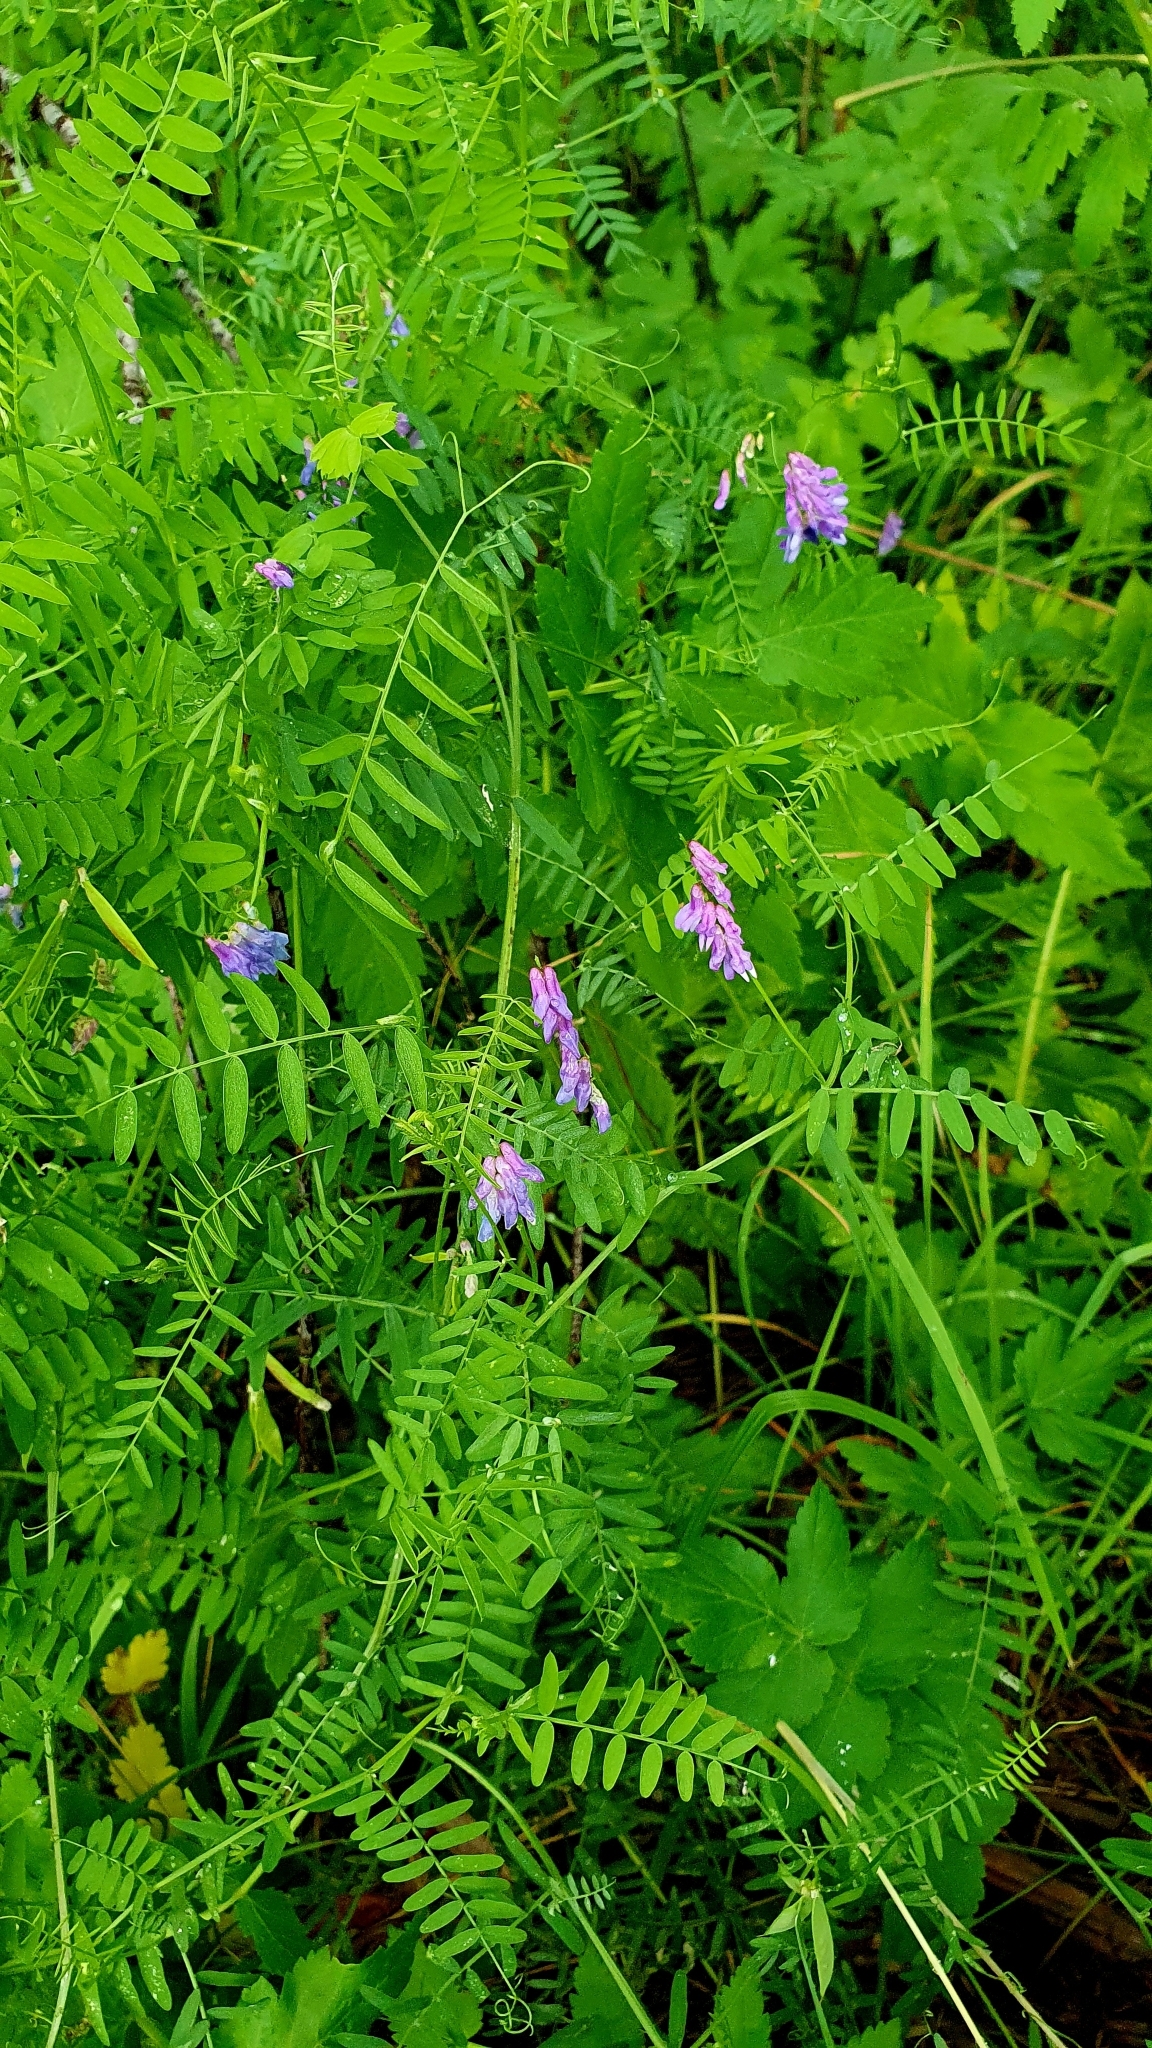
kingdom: Plantae
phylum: Tracheophyta
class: Magnoliopsida
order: Fabales
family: Fabaceae
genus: Vicia
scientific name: Vicia cracca
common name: Bird vetch
